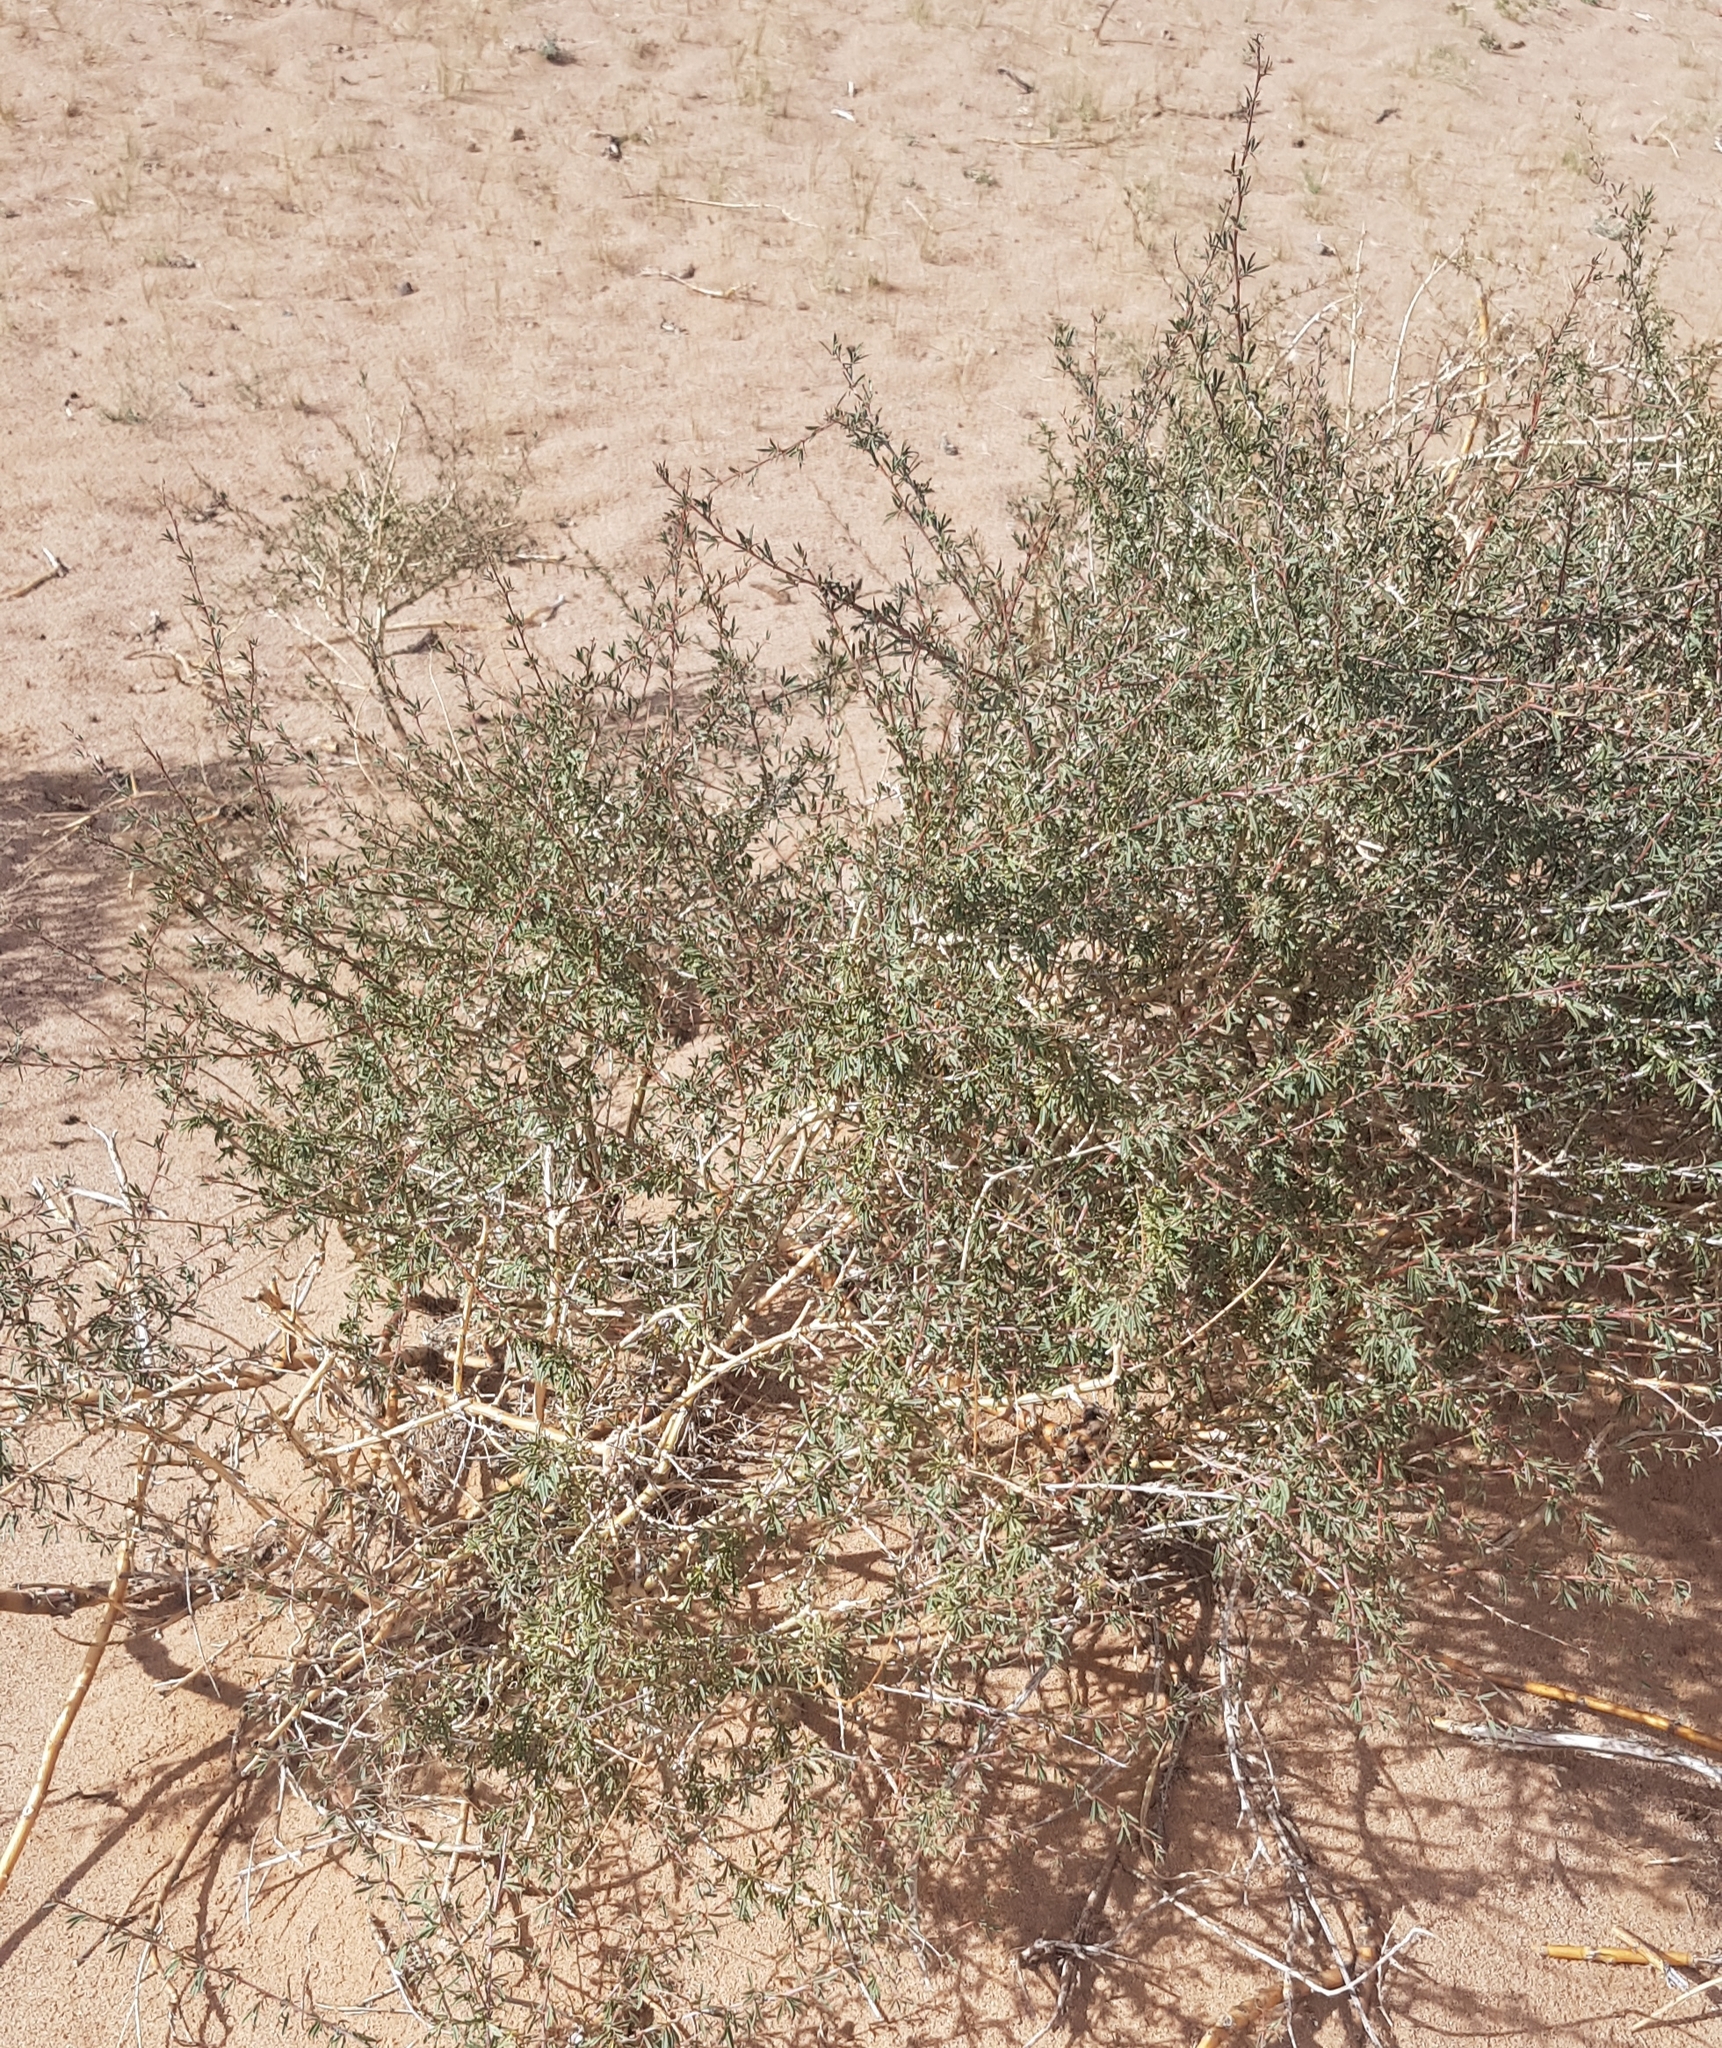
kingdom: Plantae
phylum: Tracheophyta
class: Magnoliopsida
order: Fabales
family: Fabaceae
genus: Caragana
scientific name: Caragana leucophloea
